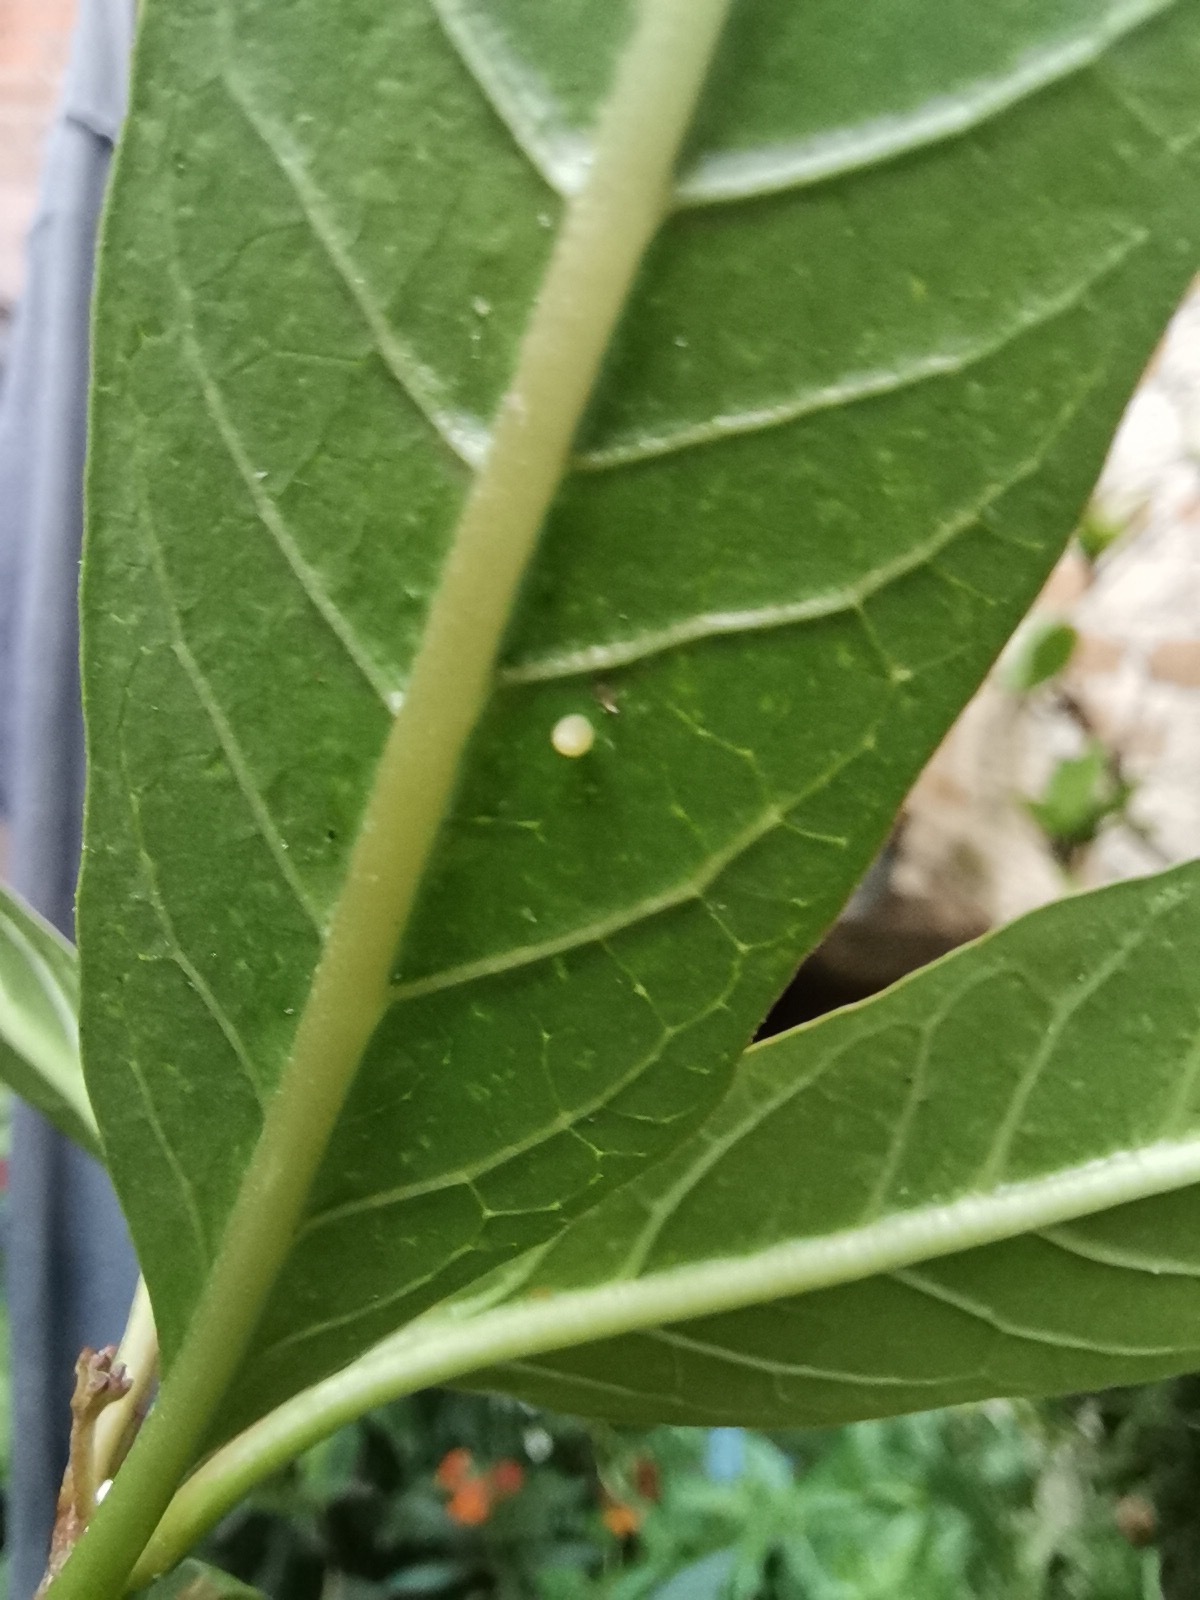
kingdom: Animalia
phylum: Arthropoda
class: Insecta
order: Lepidoptera
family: Nymphalidae
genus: Danaus
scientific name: Danaus plexippus
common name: Monarch
